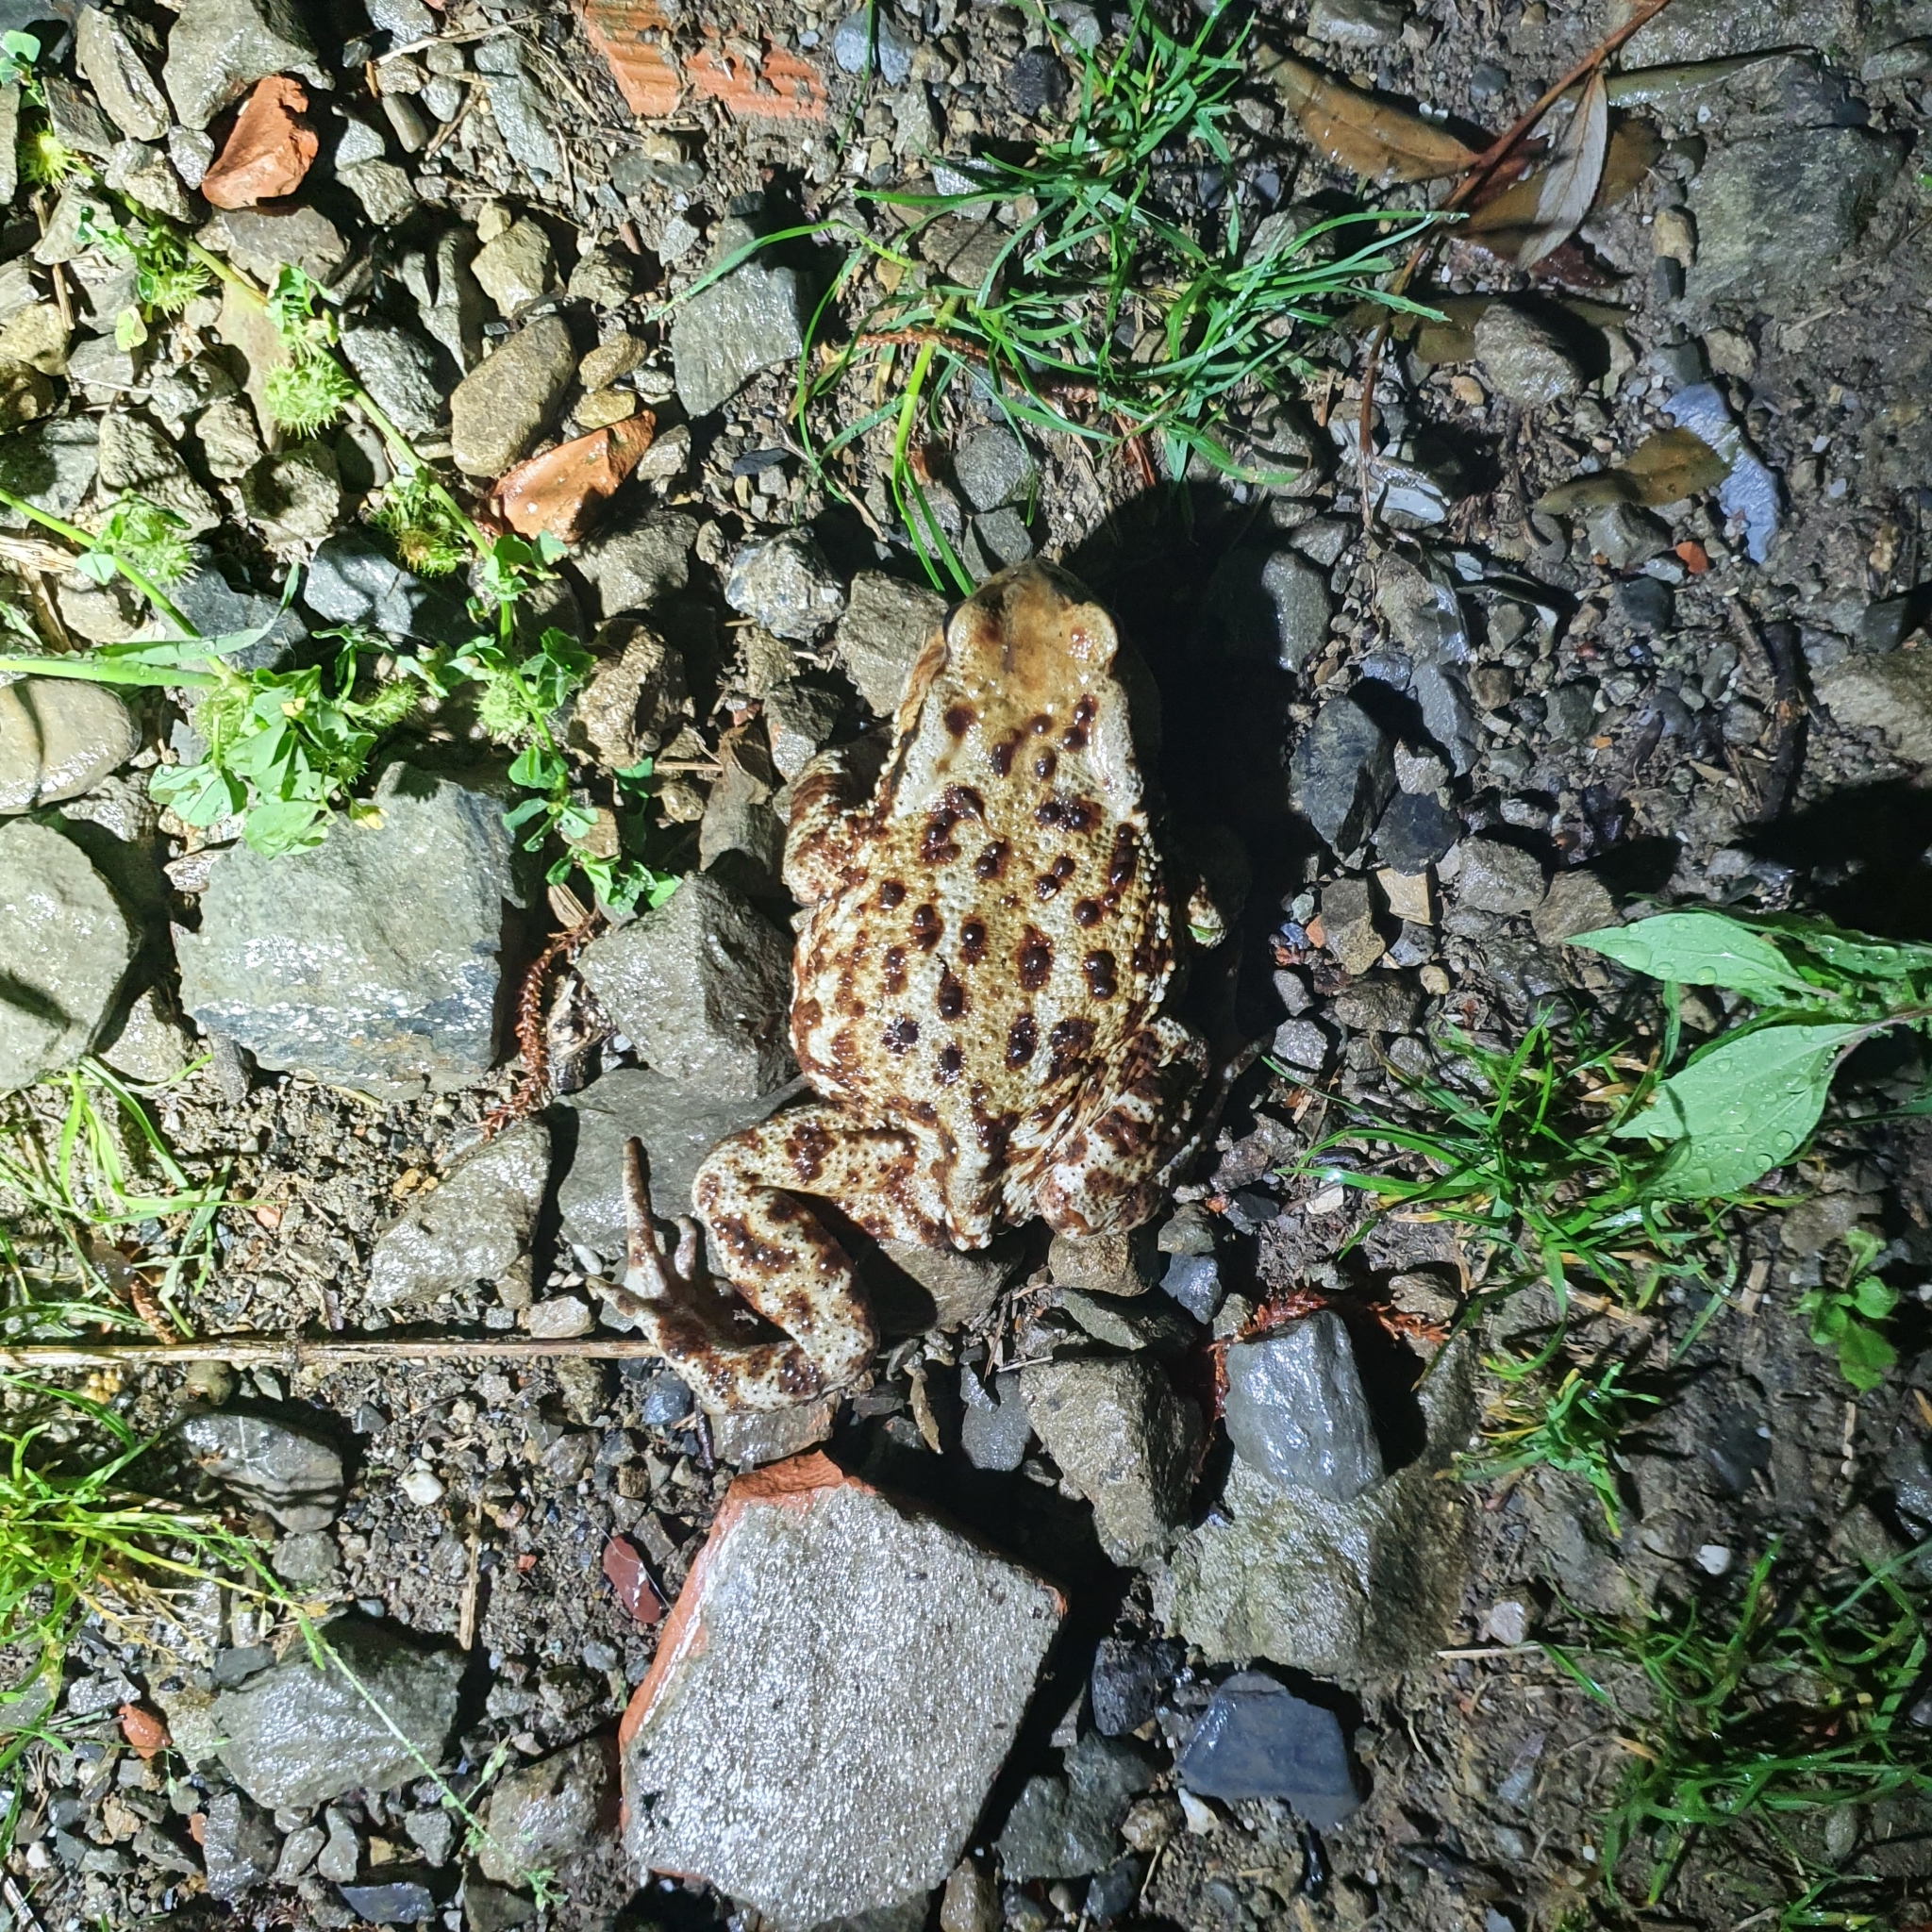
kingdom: Animalia
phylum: Chordata
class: Amphibia
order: Anura
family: Bufonidae
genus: Bufo
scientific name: Bufo bufo
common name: Common toad
